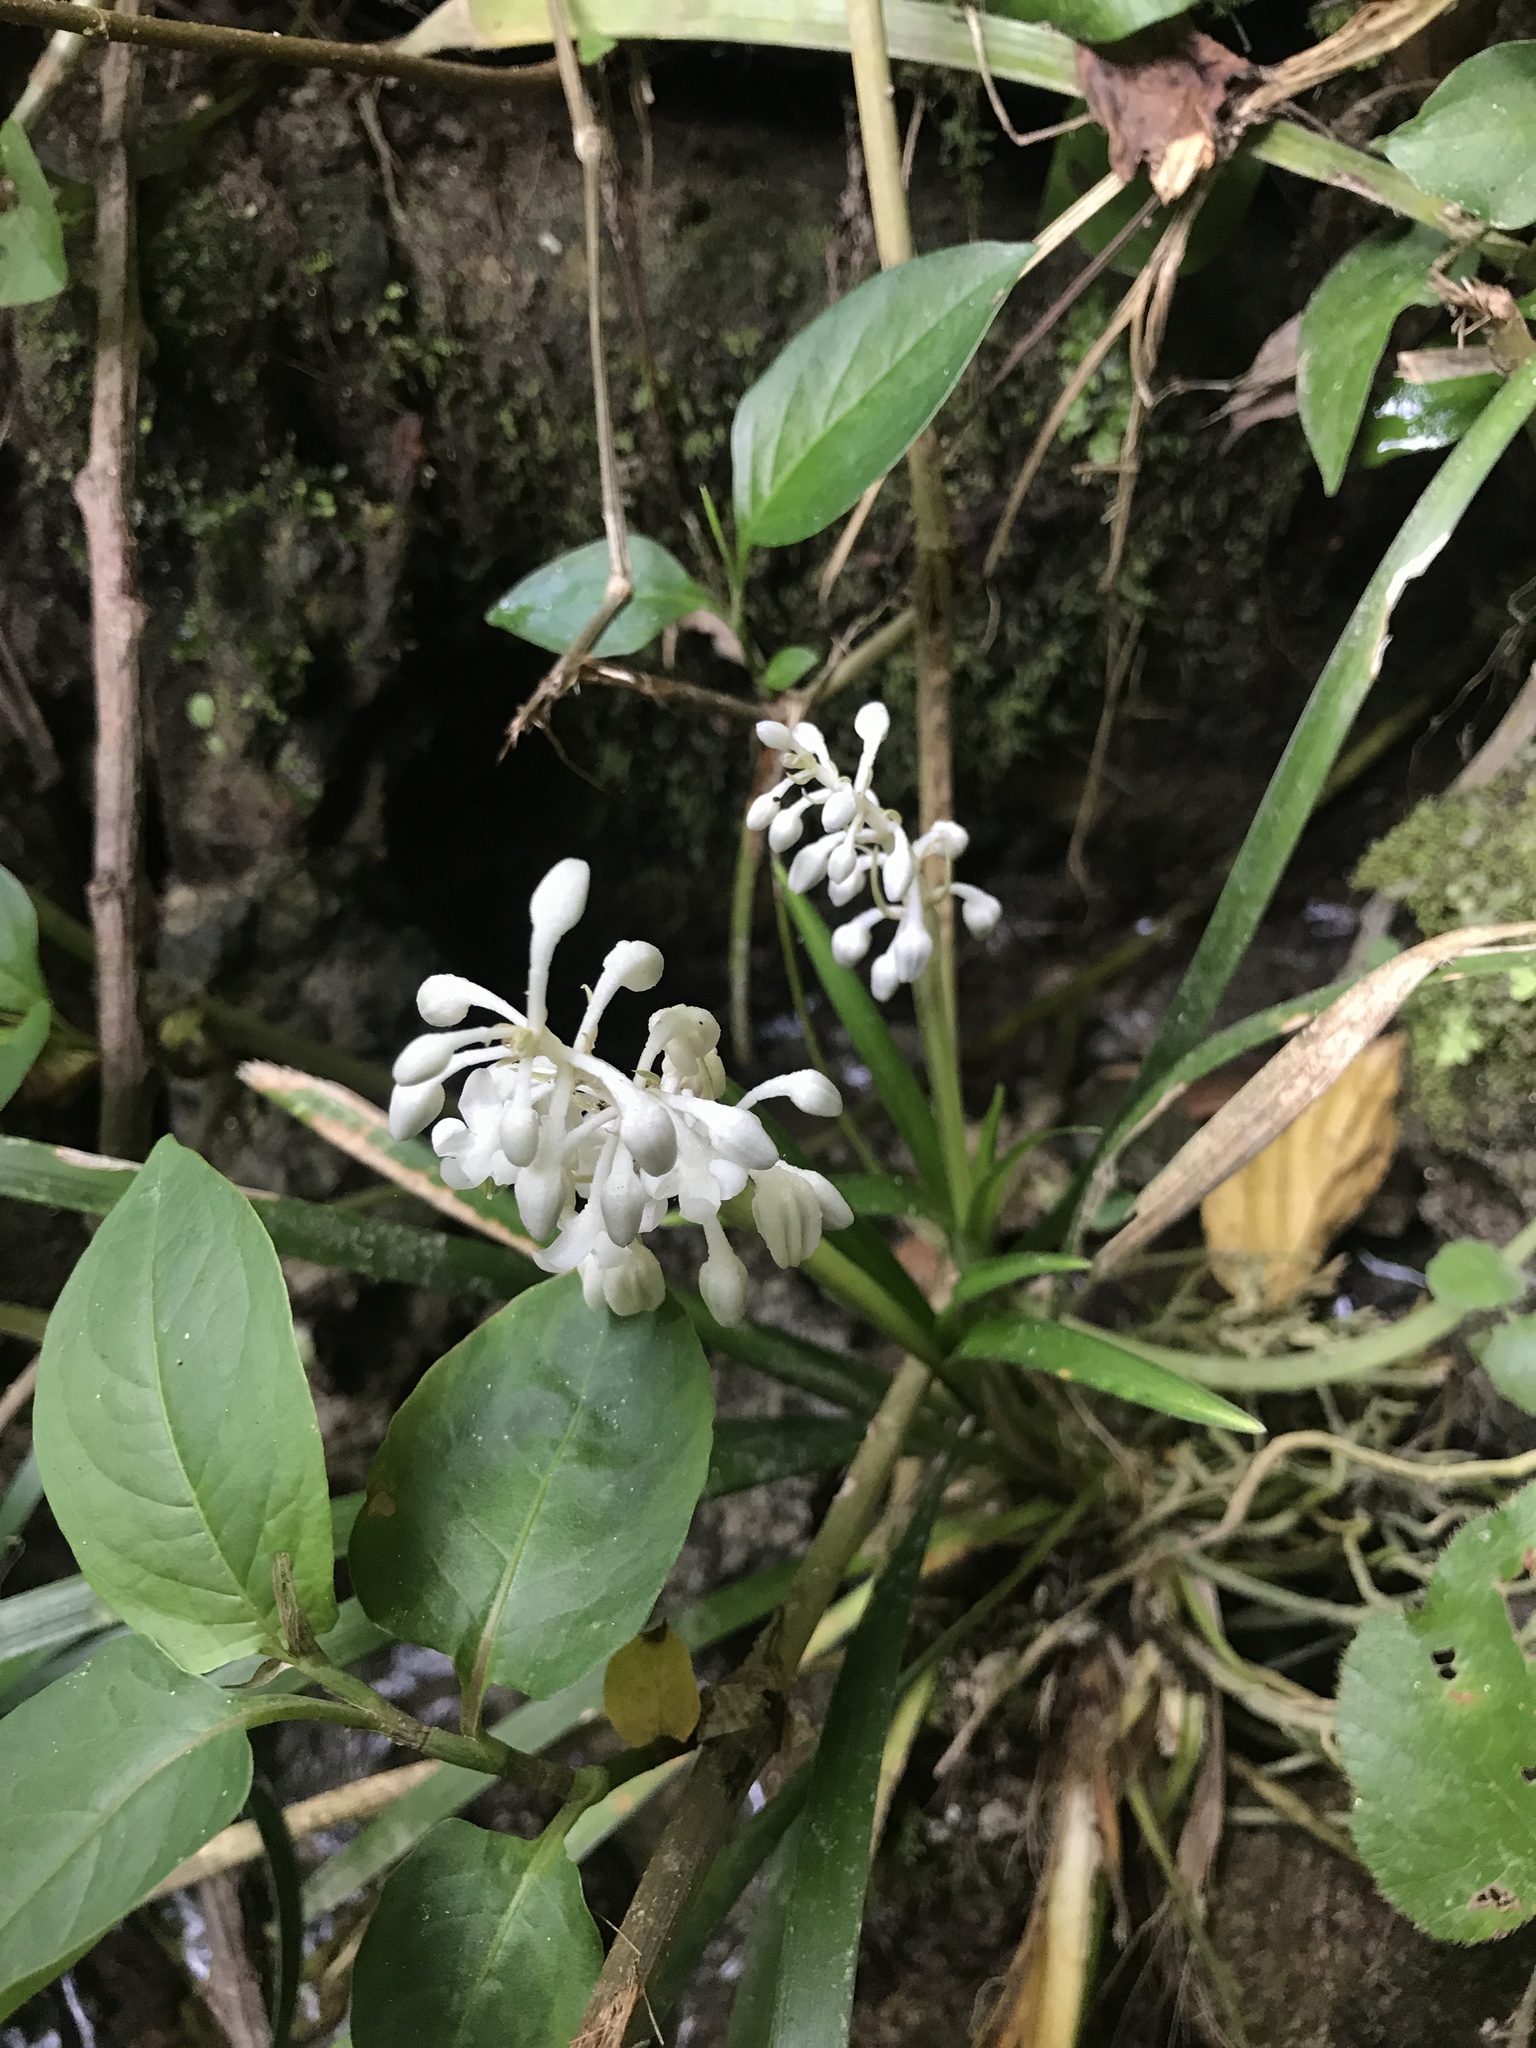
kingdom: Plantae
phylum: Tracheophyta
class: Liliopsida
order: Asparagales
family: Asparagaceae
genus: Ophiopogon
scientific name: Ophiopogon jaburan
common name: Lilyturf
